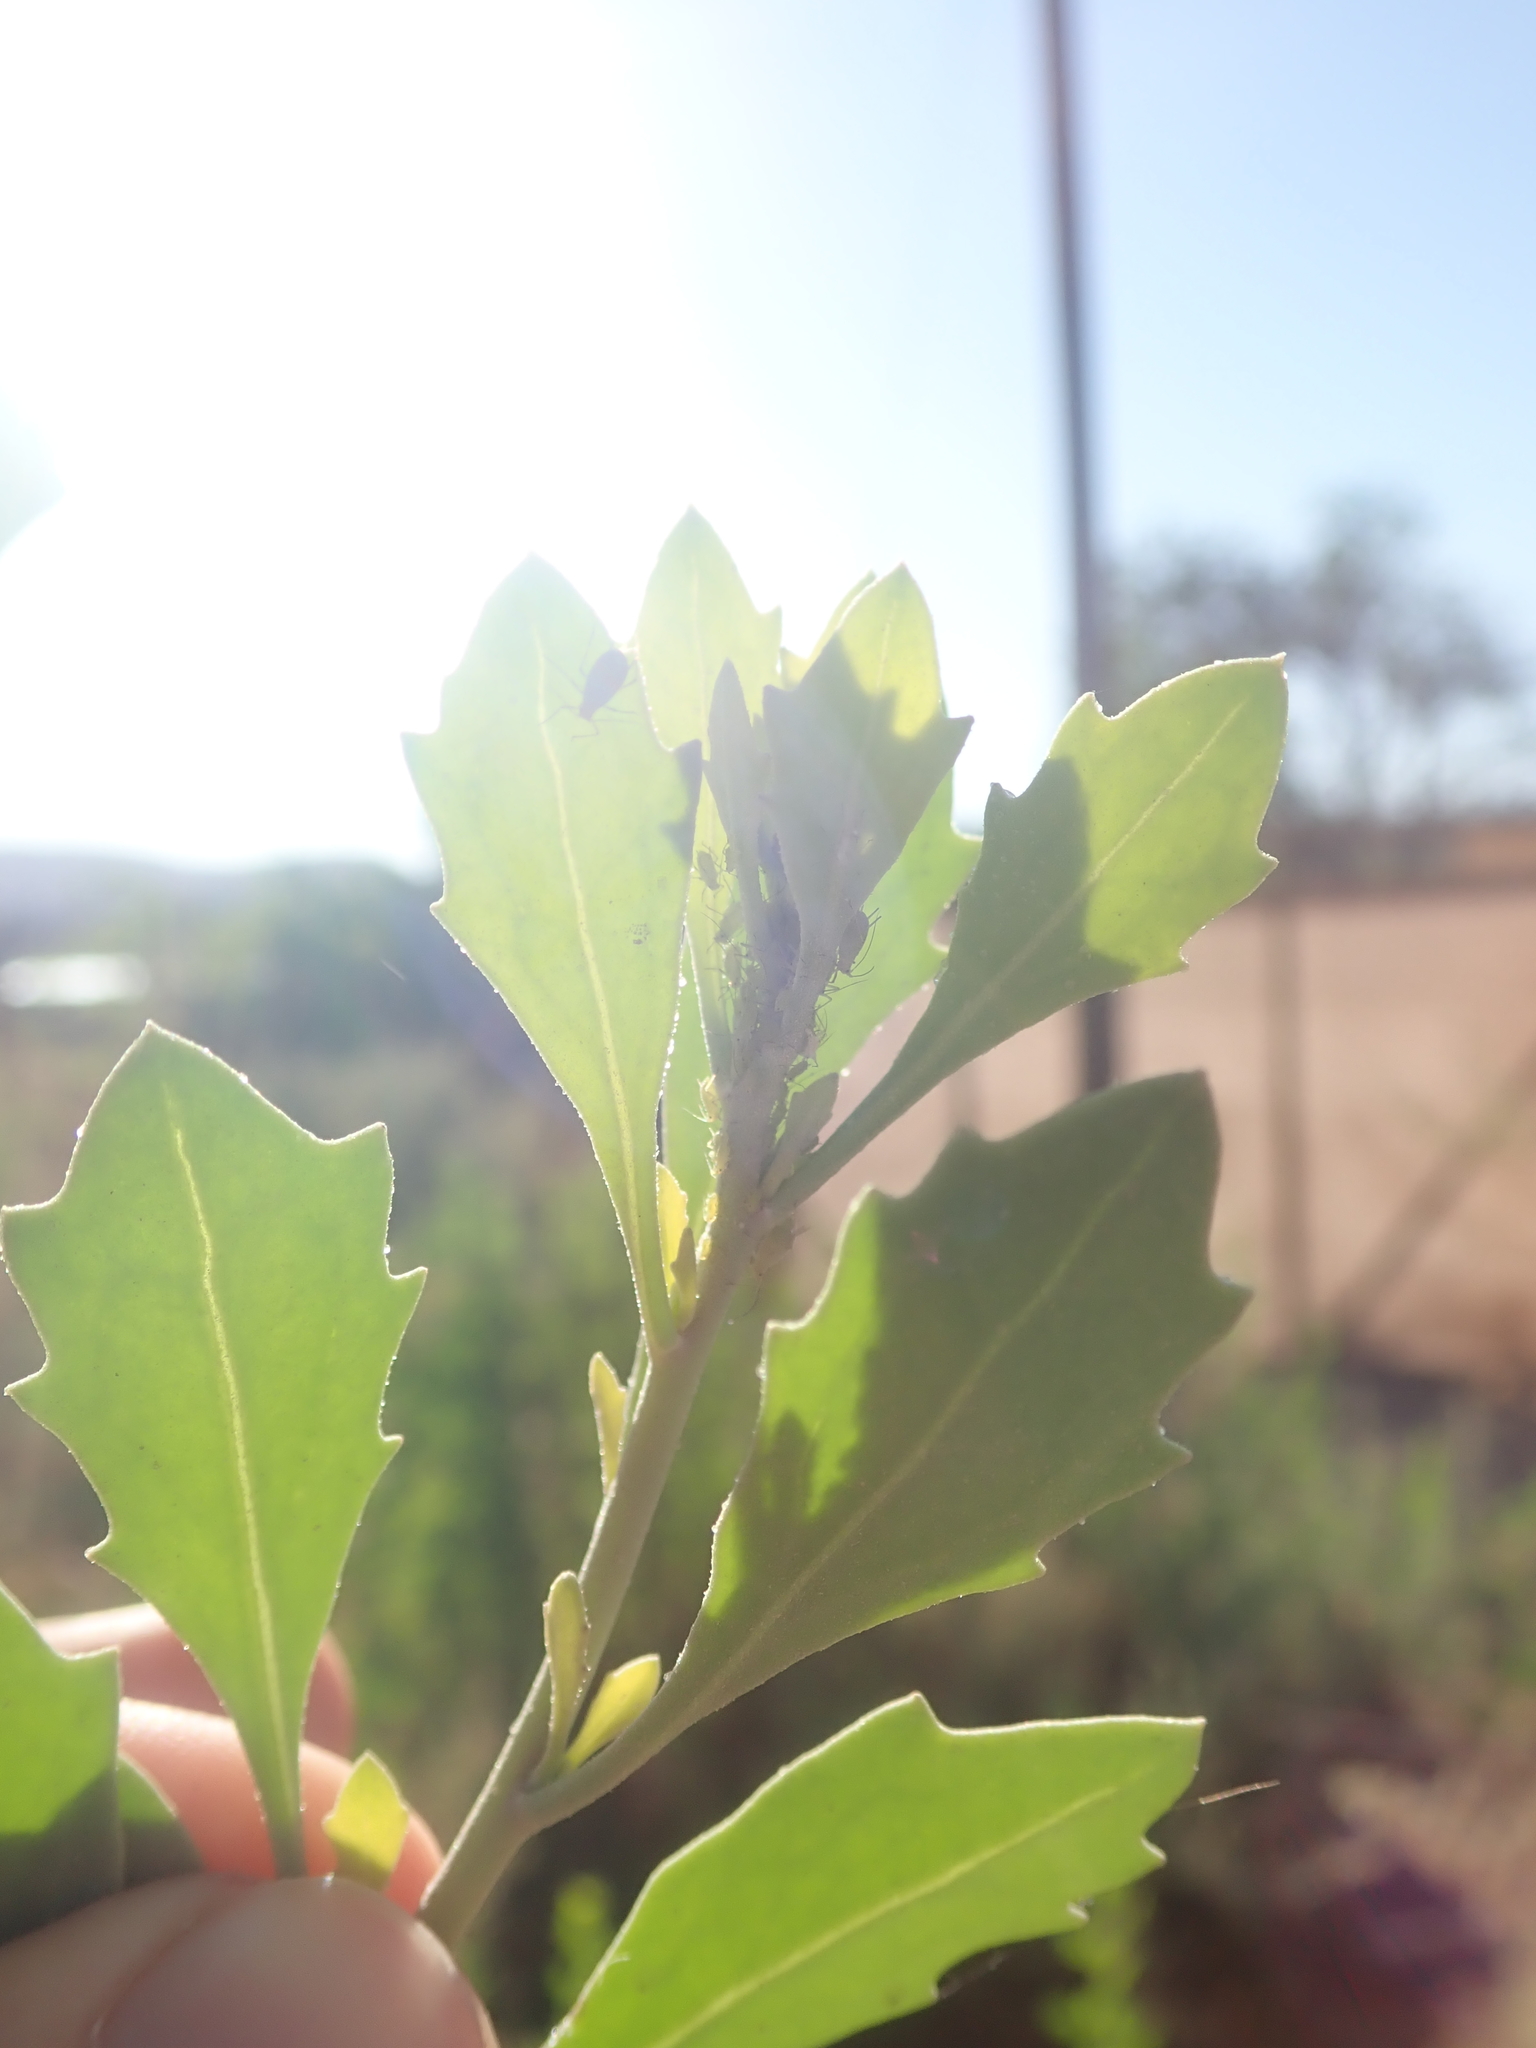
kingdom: Plantae
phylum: Tracheophyta
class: Magnoliopsida
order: Asterales
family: Asteraceae
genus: Tessaria
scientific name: Tessaria absinthioides
